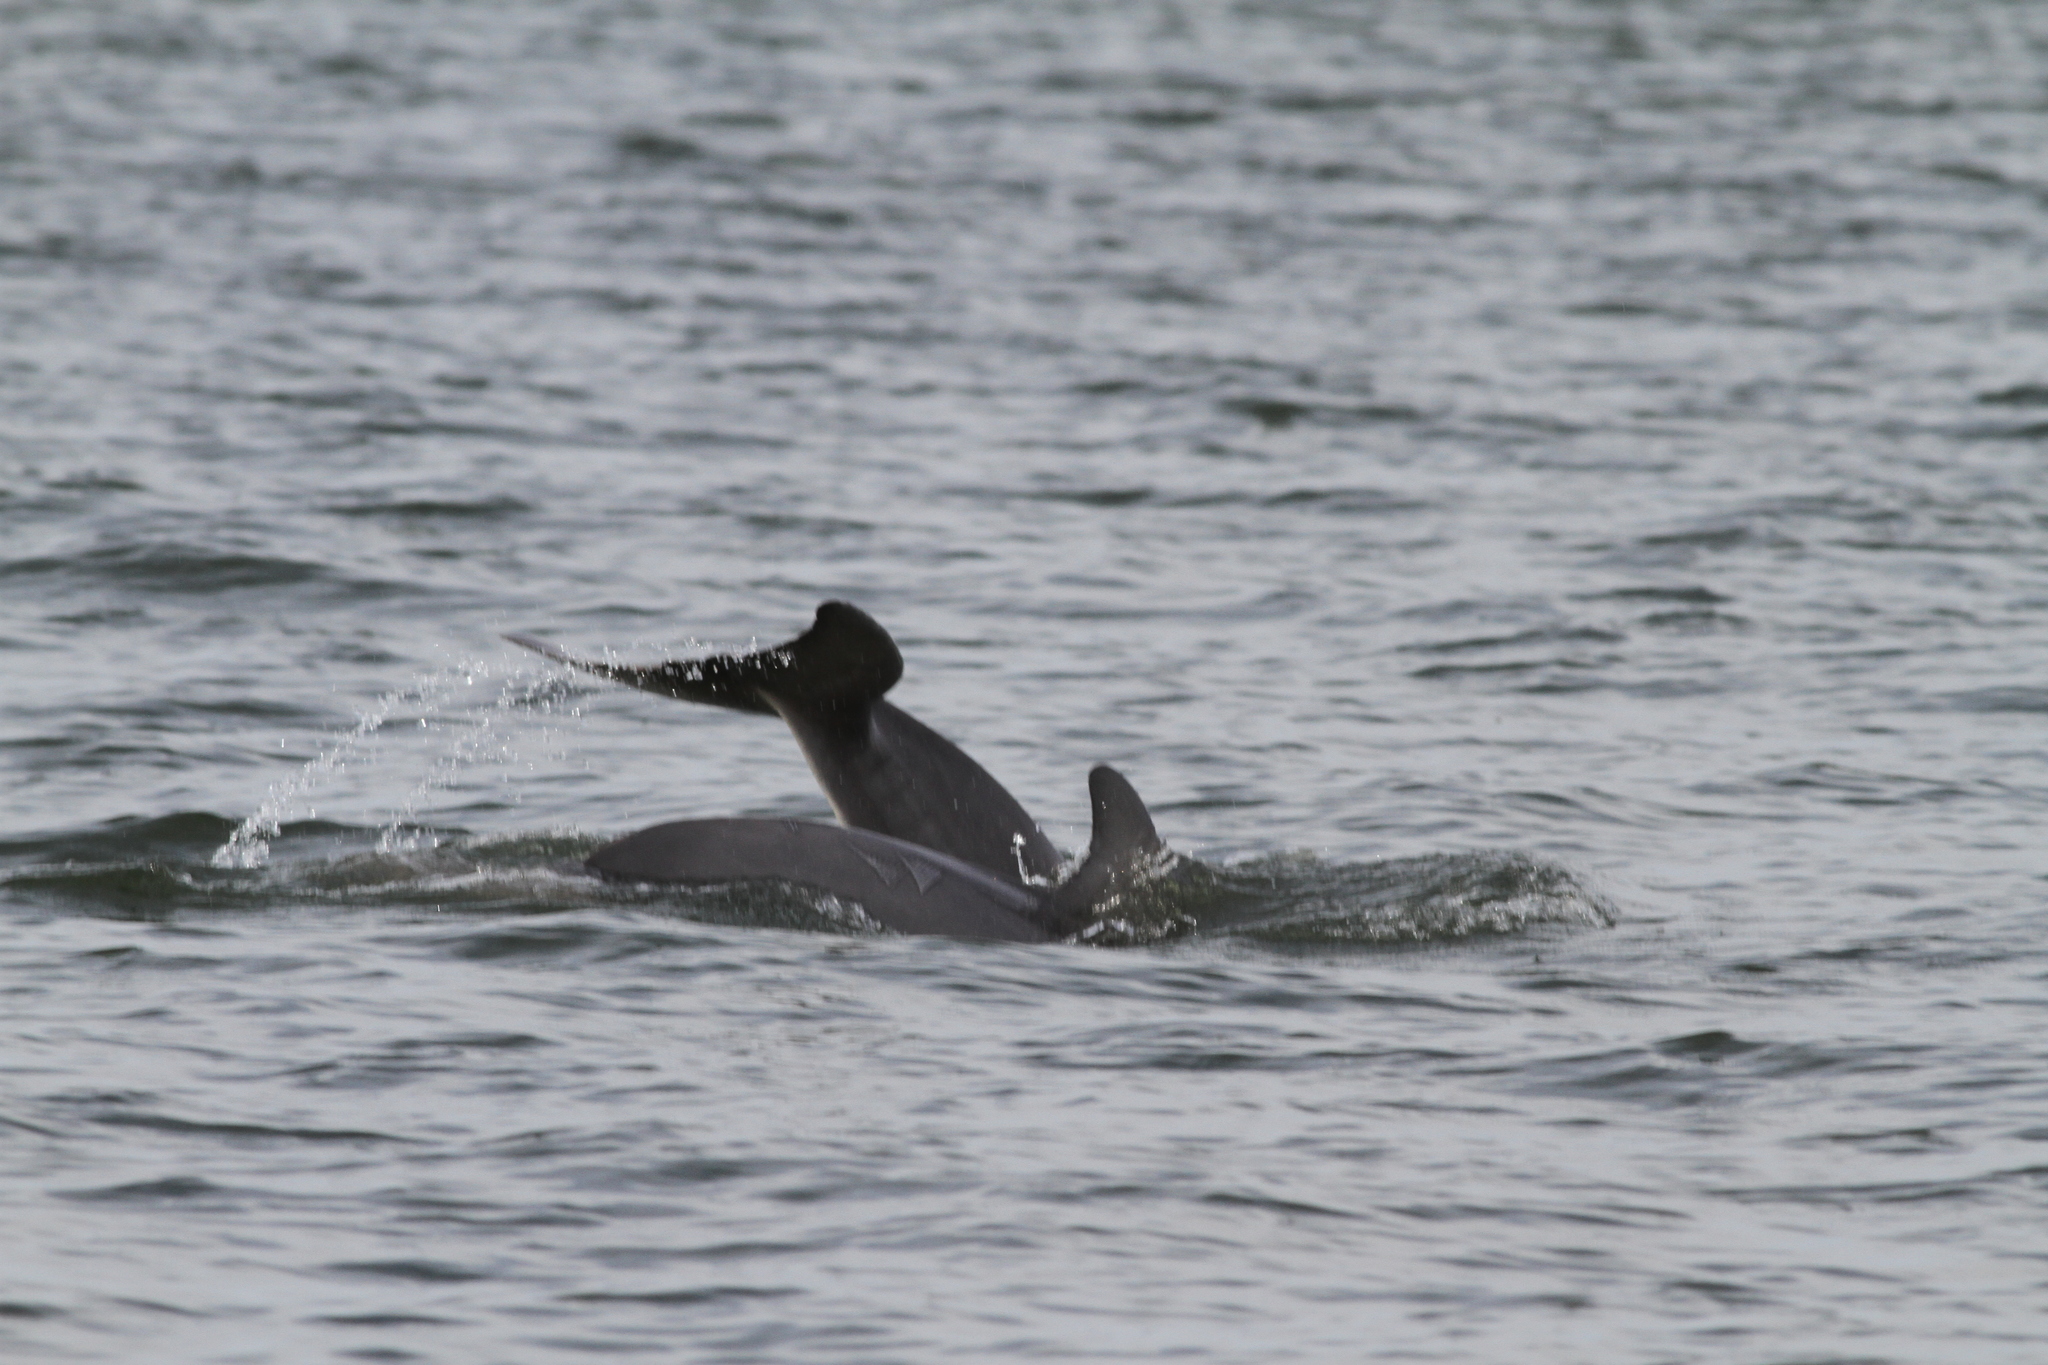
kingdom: Animalia
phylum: Chordata
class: Mammalia
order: Cetacea
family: Delphinidae
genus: Tursiops
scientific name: Tursiops truncatus
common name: Bottlenose dolphin
